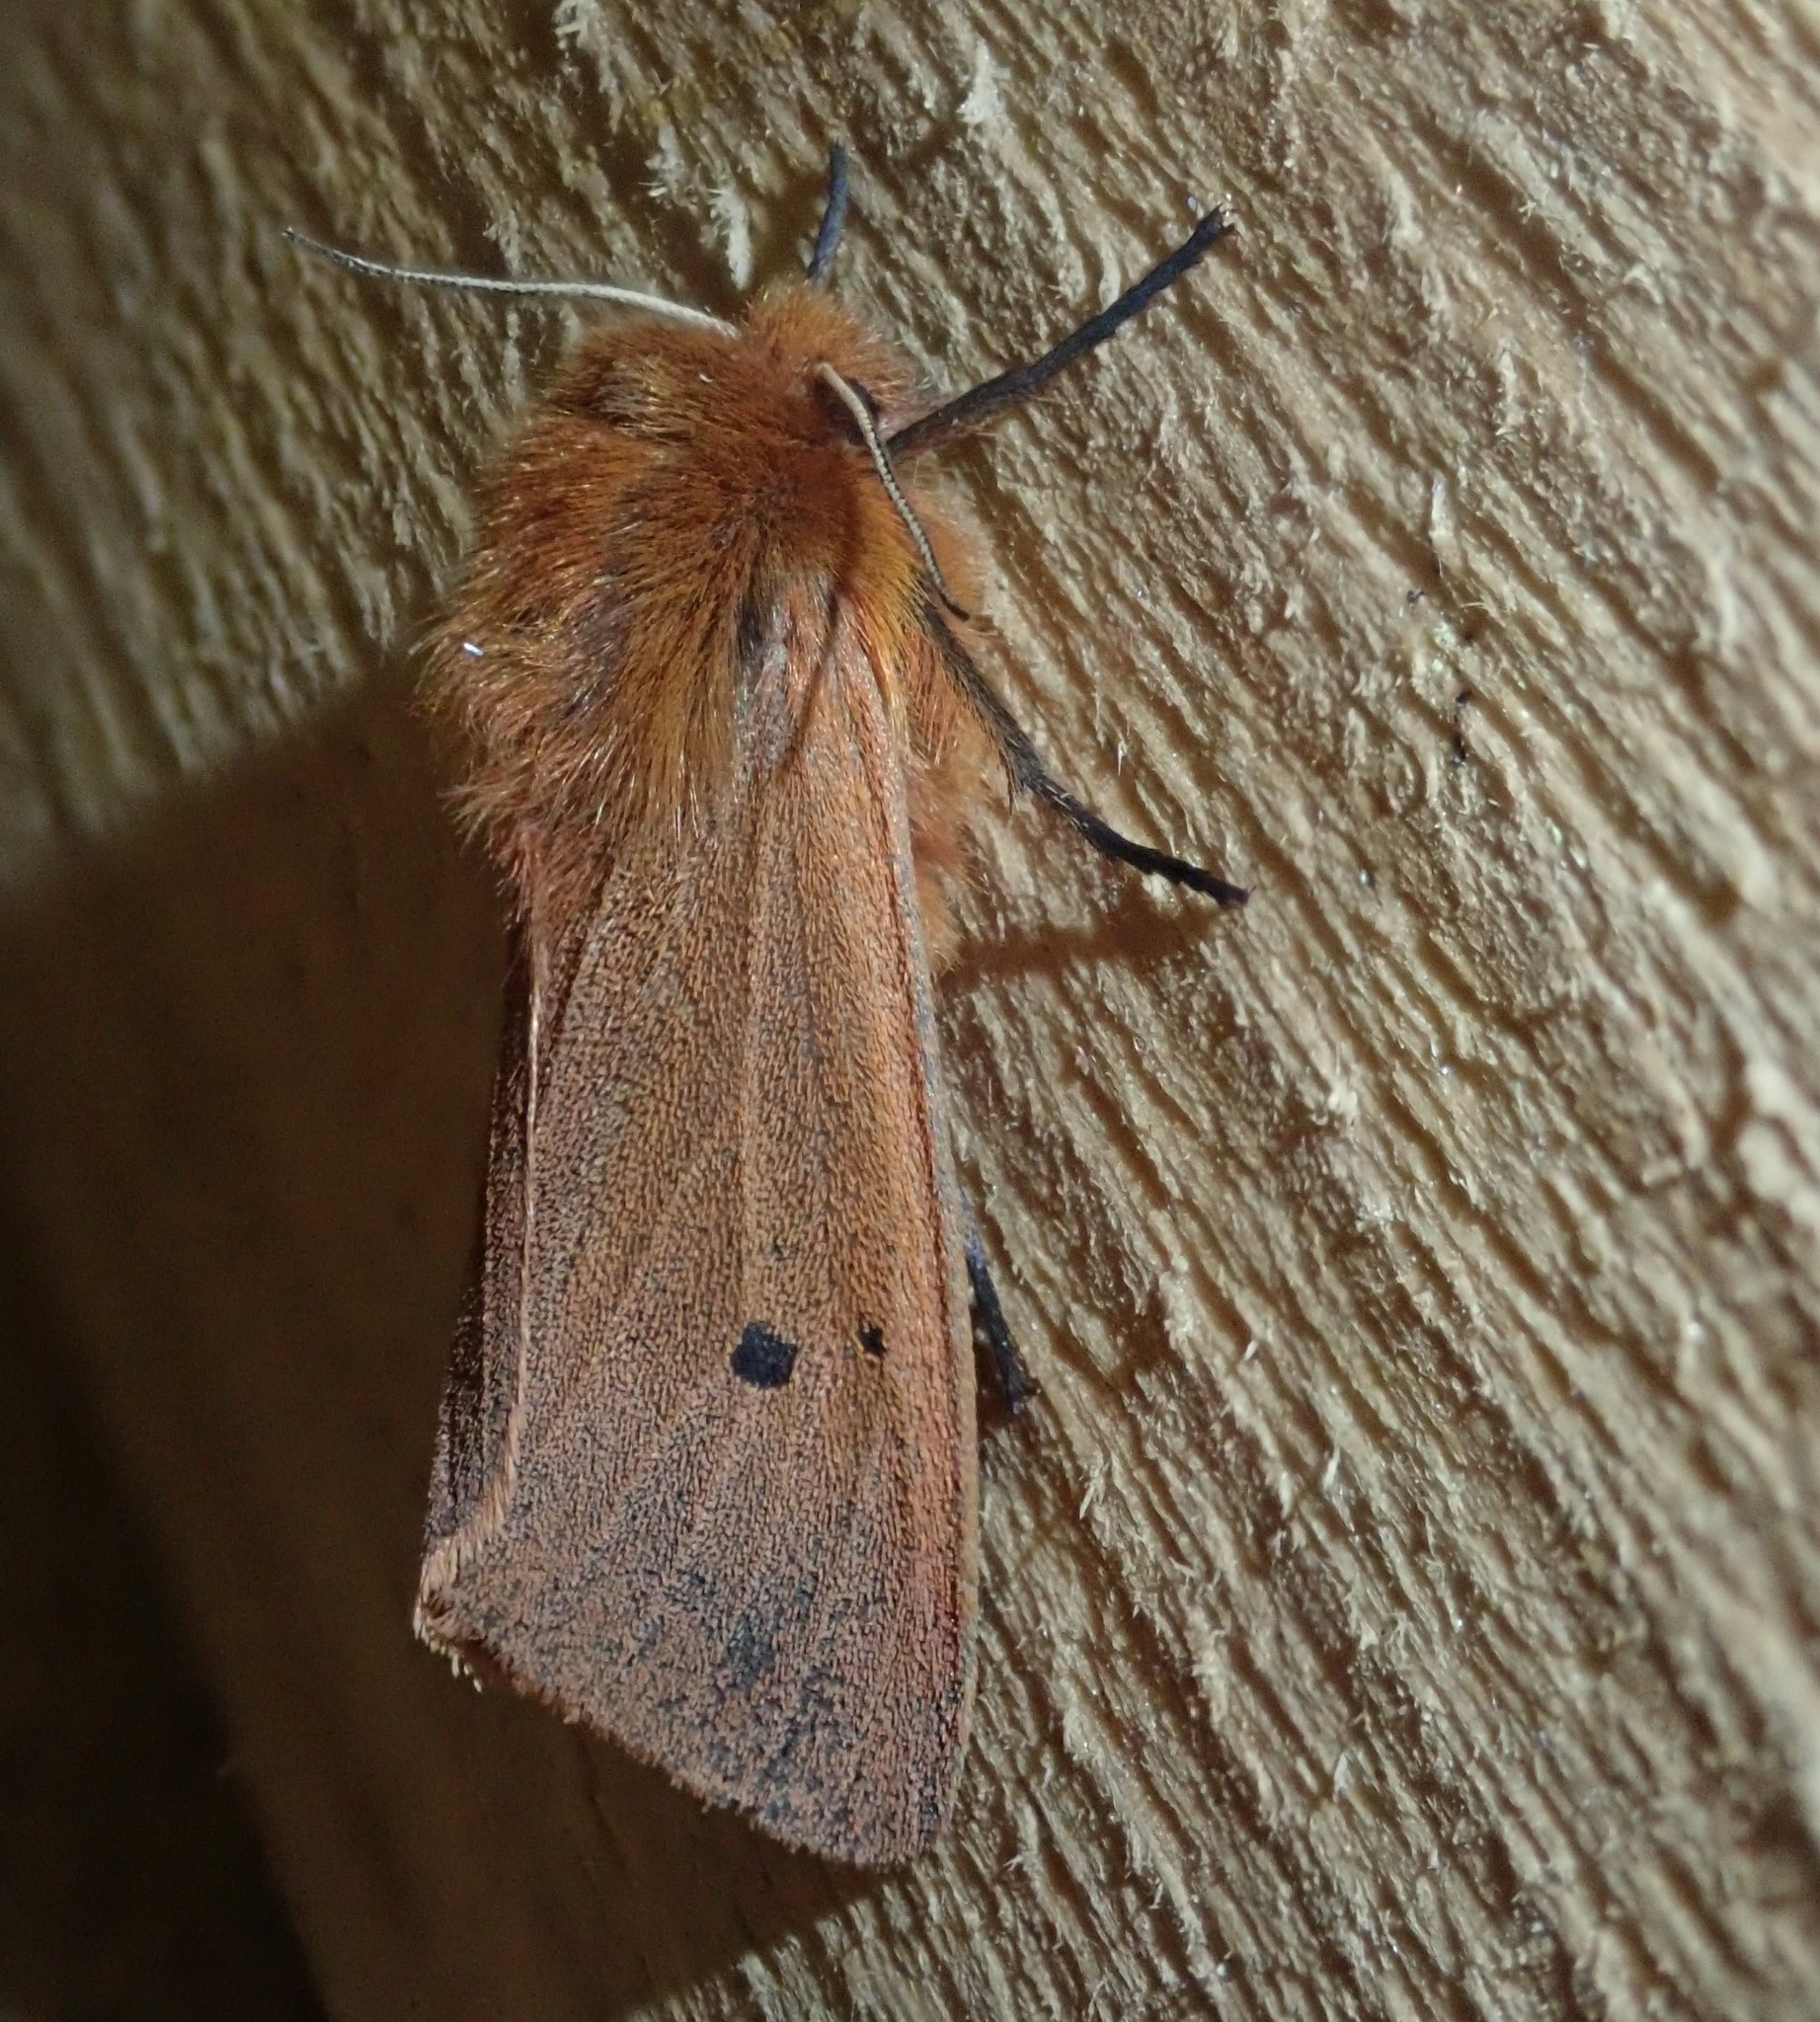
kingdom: Animalia
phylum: Arthropoda
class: Insecta
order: Lepidoptera
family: Erebidae
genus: Phragmatobia
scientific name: Phragmatobia fuliginosa
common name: Ruby tiger
